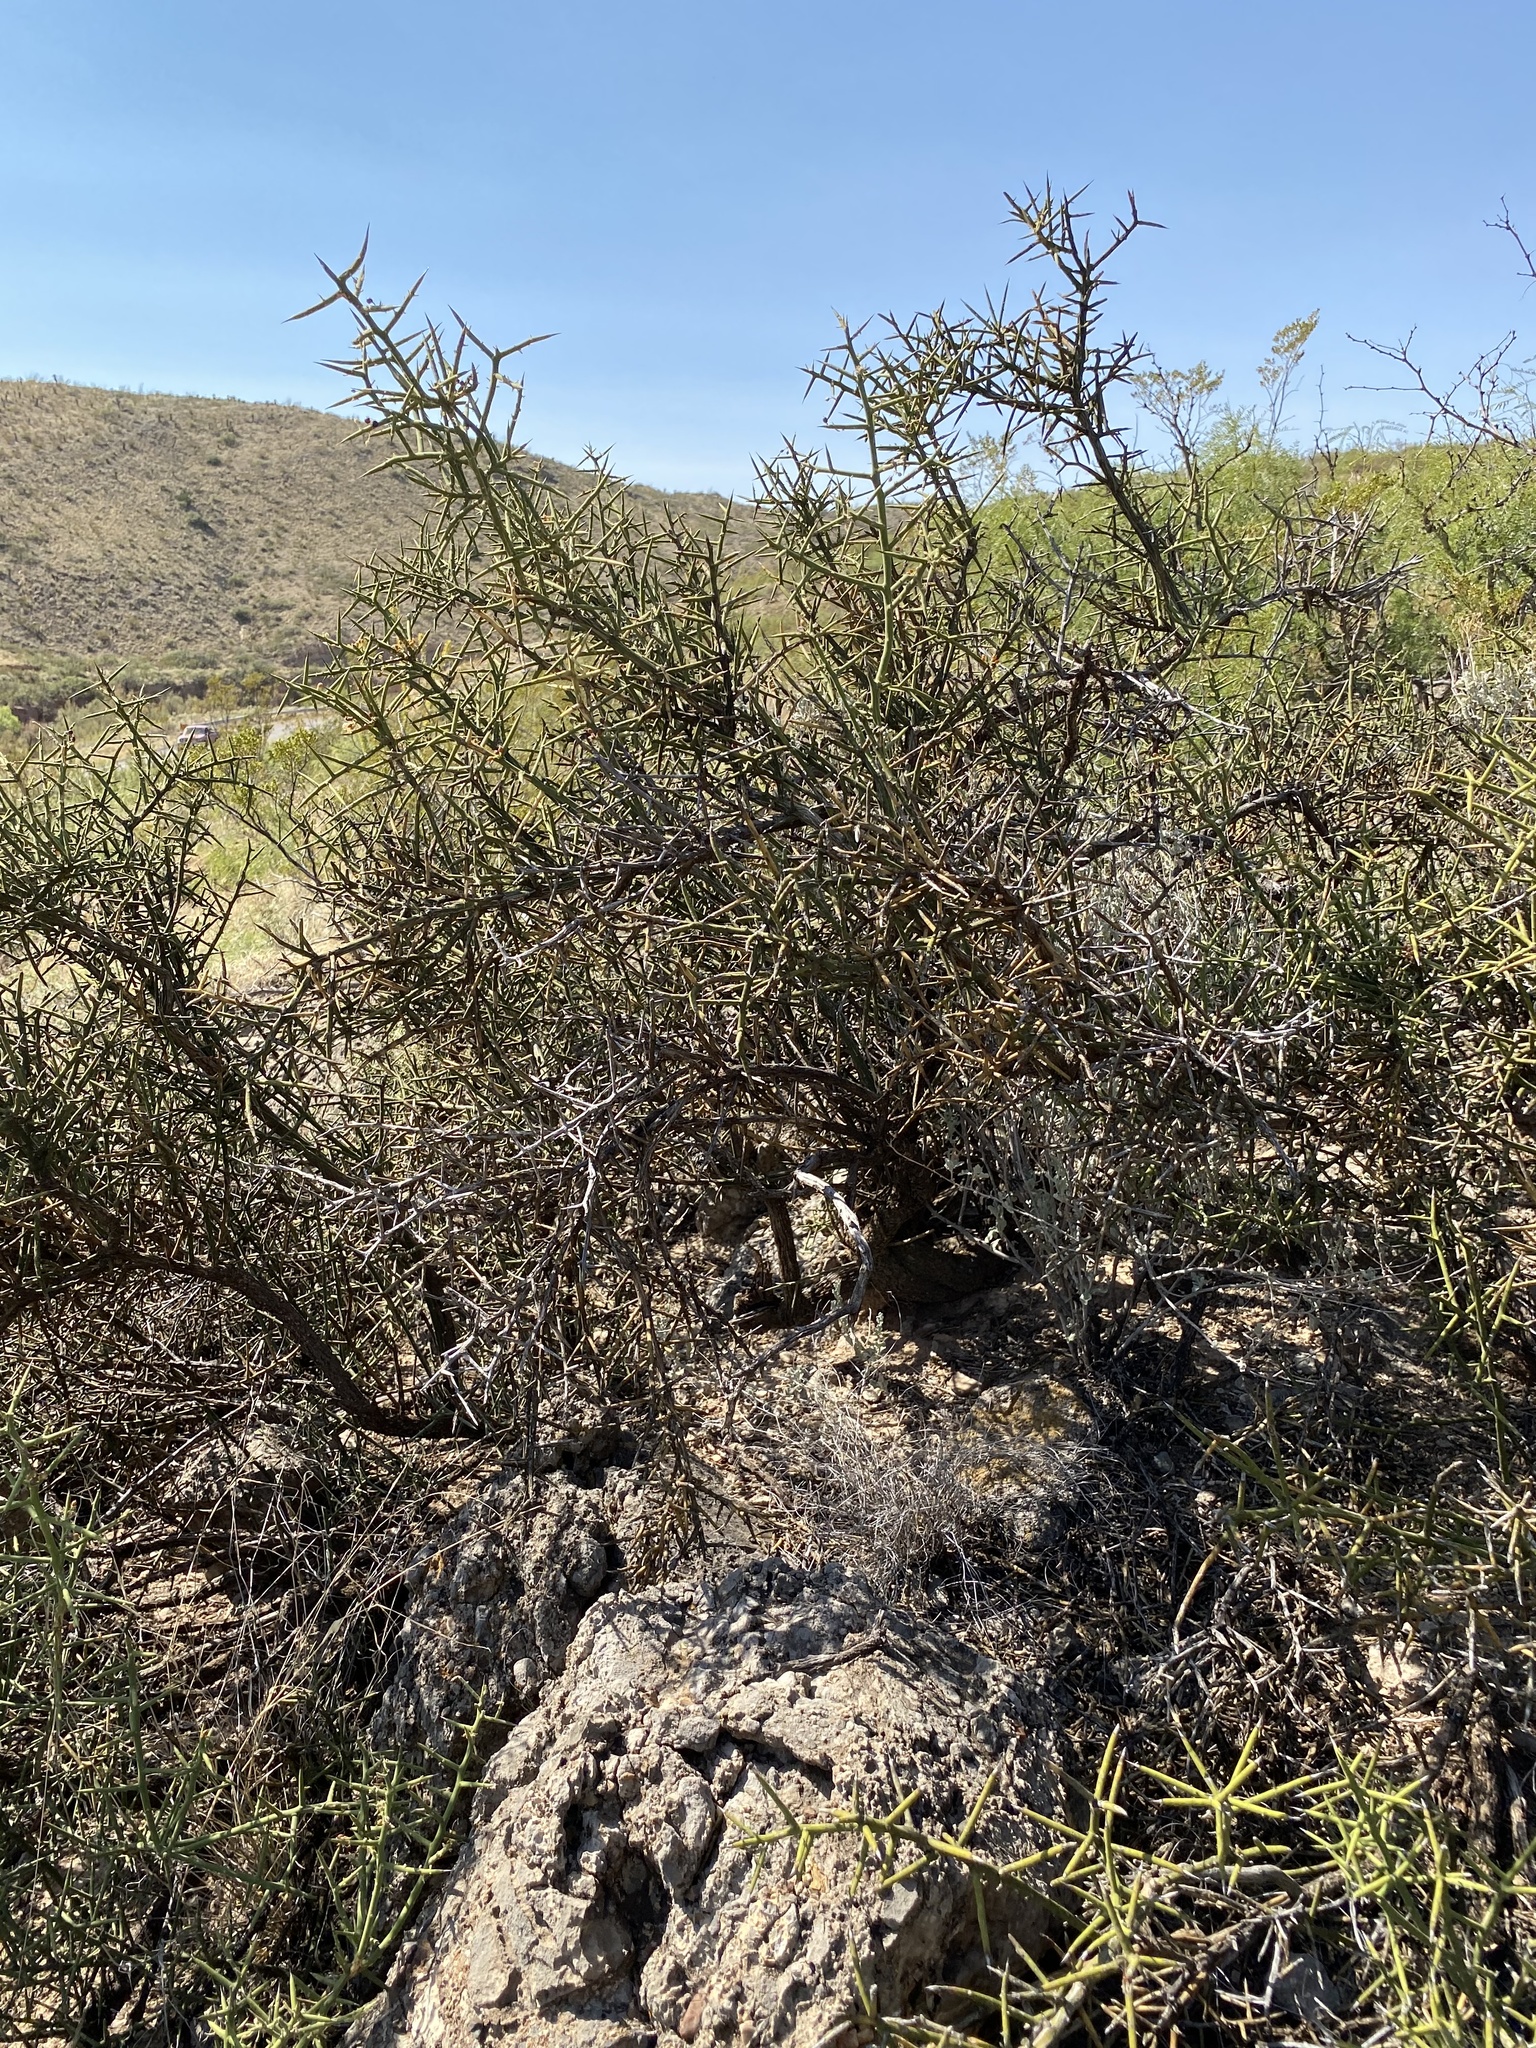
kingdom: Plantae
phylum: Tracheophyta
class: Magnoliopsida
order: Brassicales
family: Koeberliniaceae
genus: Koeberlinia
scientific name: Koeberlinia spinosa
